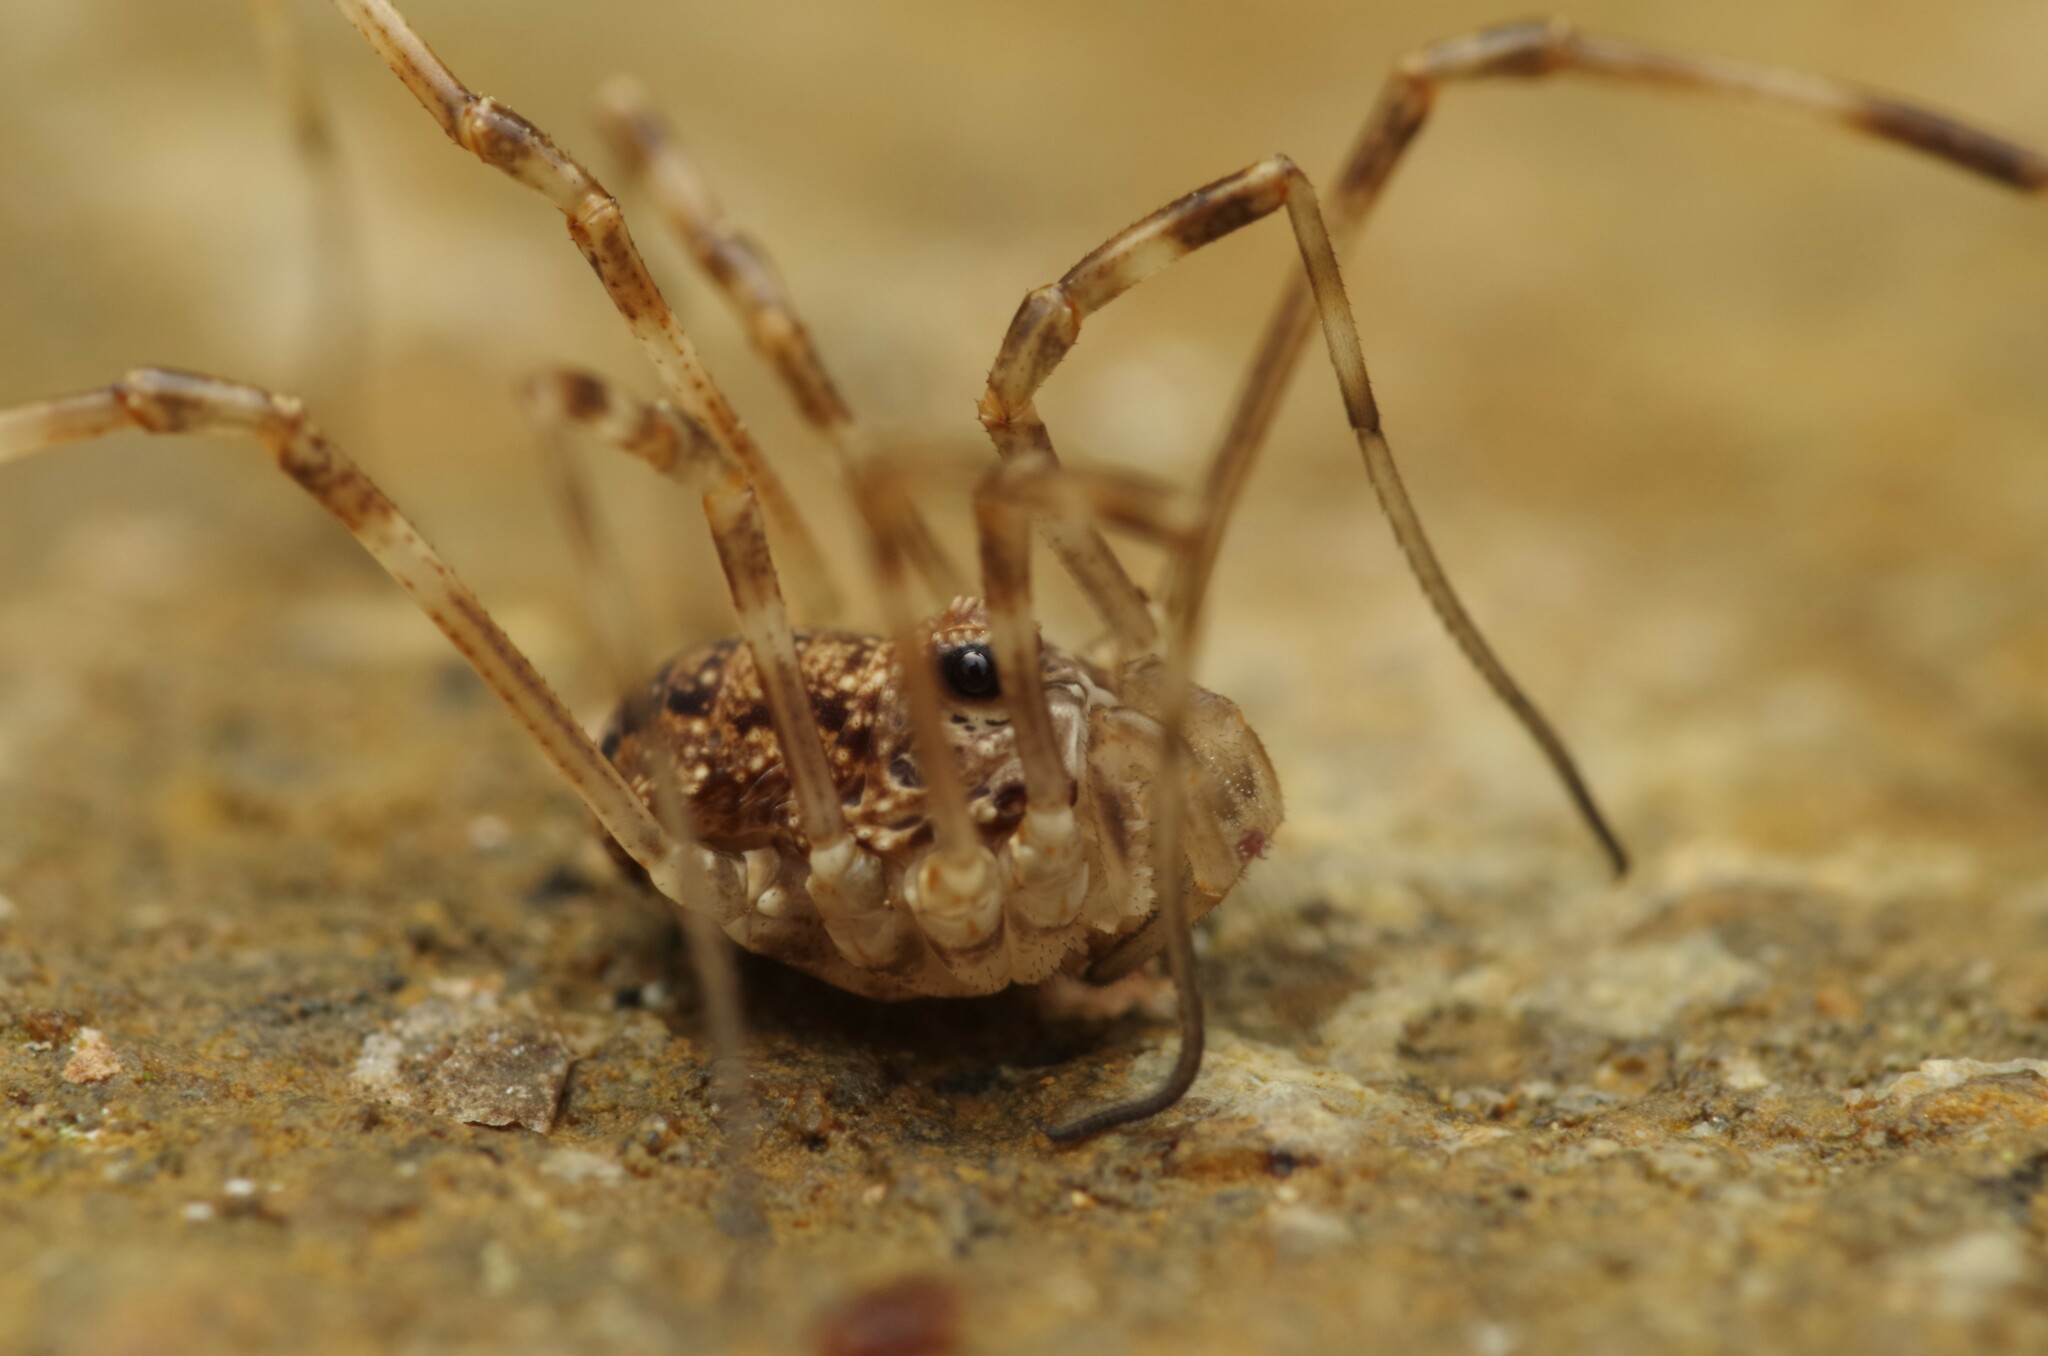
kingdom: Animalia
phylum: Arthropoda
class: Arachnida
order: Opiliones
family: Phalangiidae
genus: Rilaena
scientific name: Rilaena triangularis
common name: Spring harvestman
